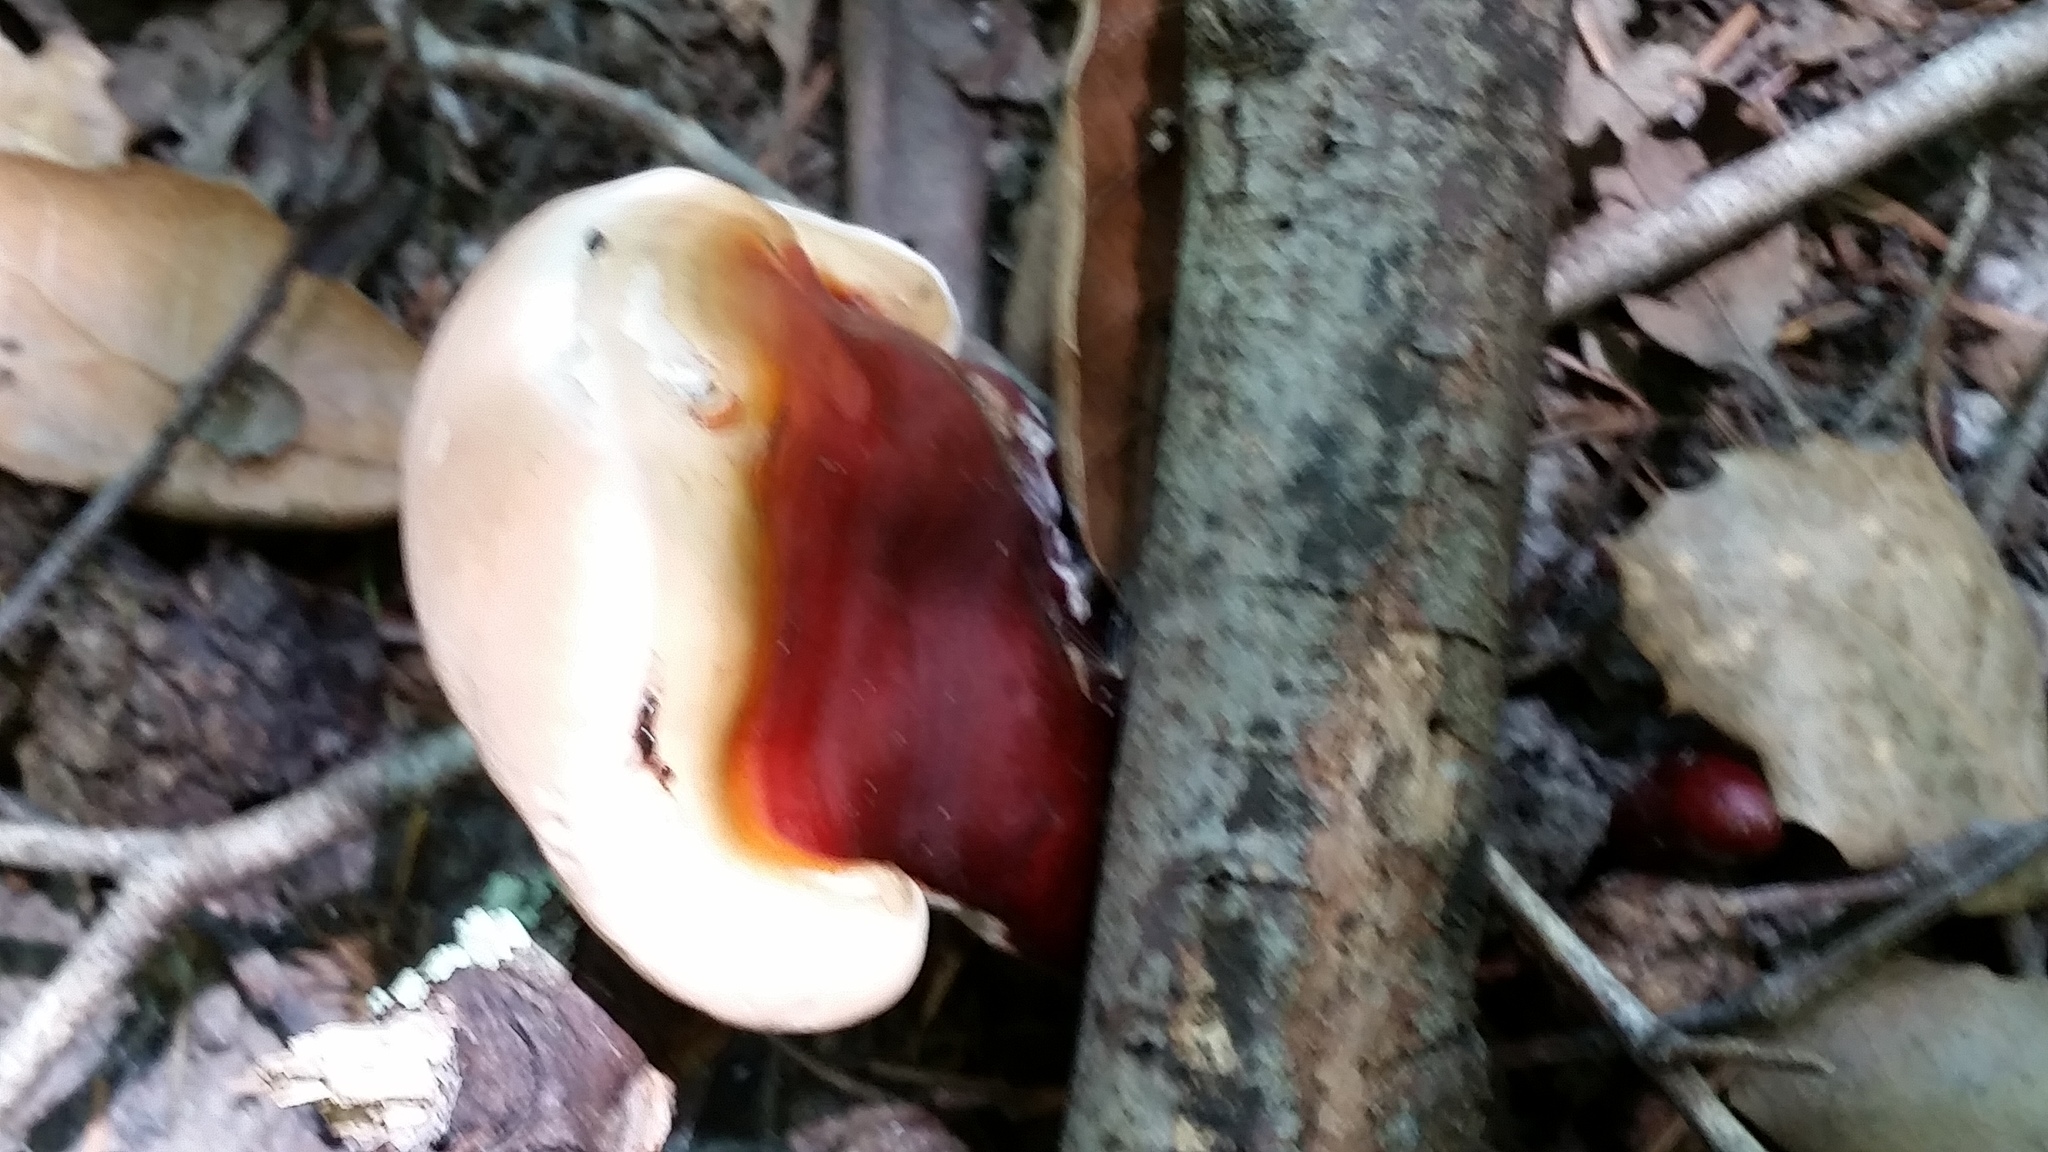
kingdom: Fungi
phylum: Basidiomycota
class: Agaricomycetes
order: Polyporales
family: Polyporaceae
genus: Ganoderma
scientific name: Ganoderma oregonense
